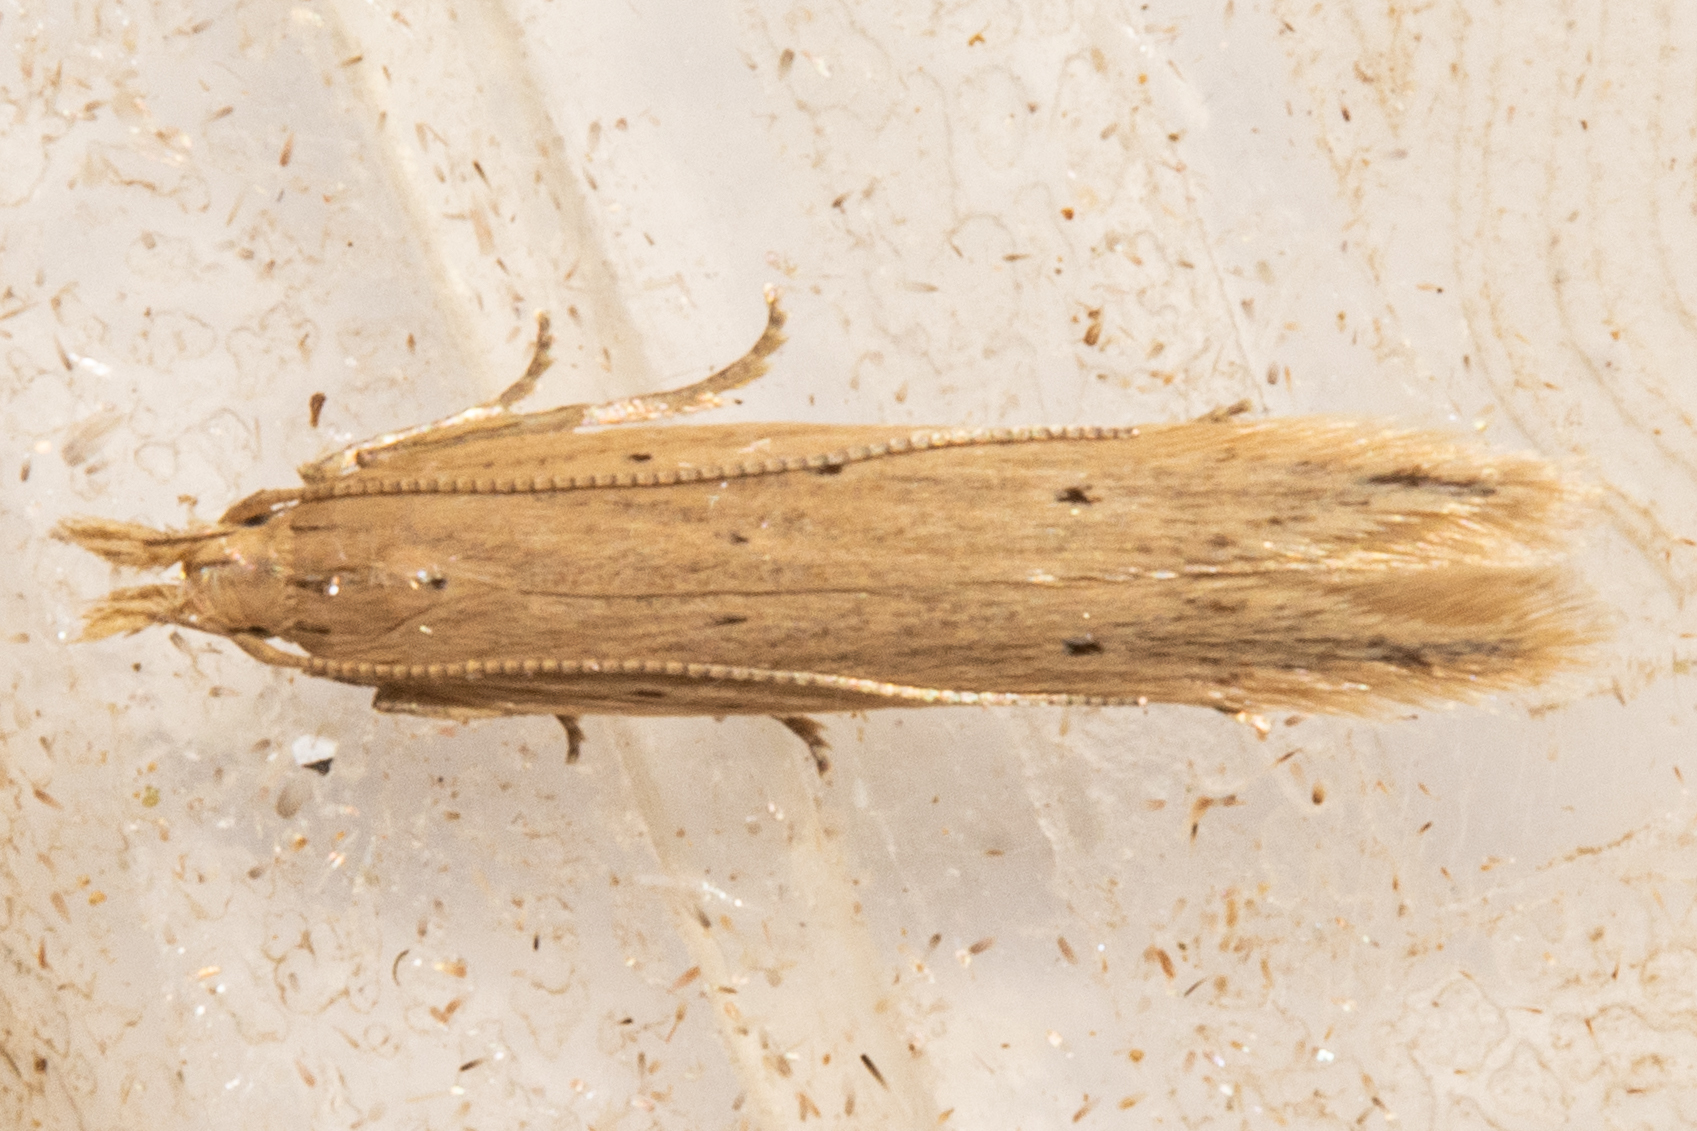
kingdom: Animalia
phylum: Arthropoda
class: Insecta
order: Lepidoptera
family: Gelechiidae
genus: Epiphthora
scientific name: Epiphthora calamogonus
